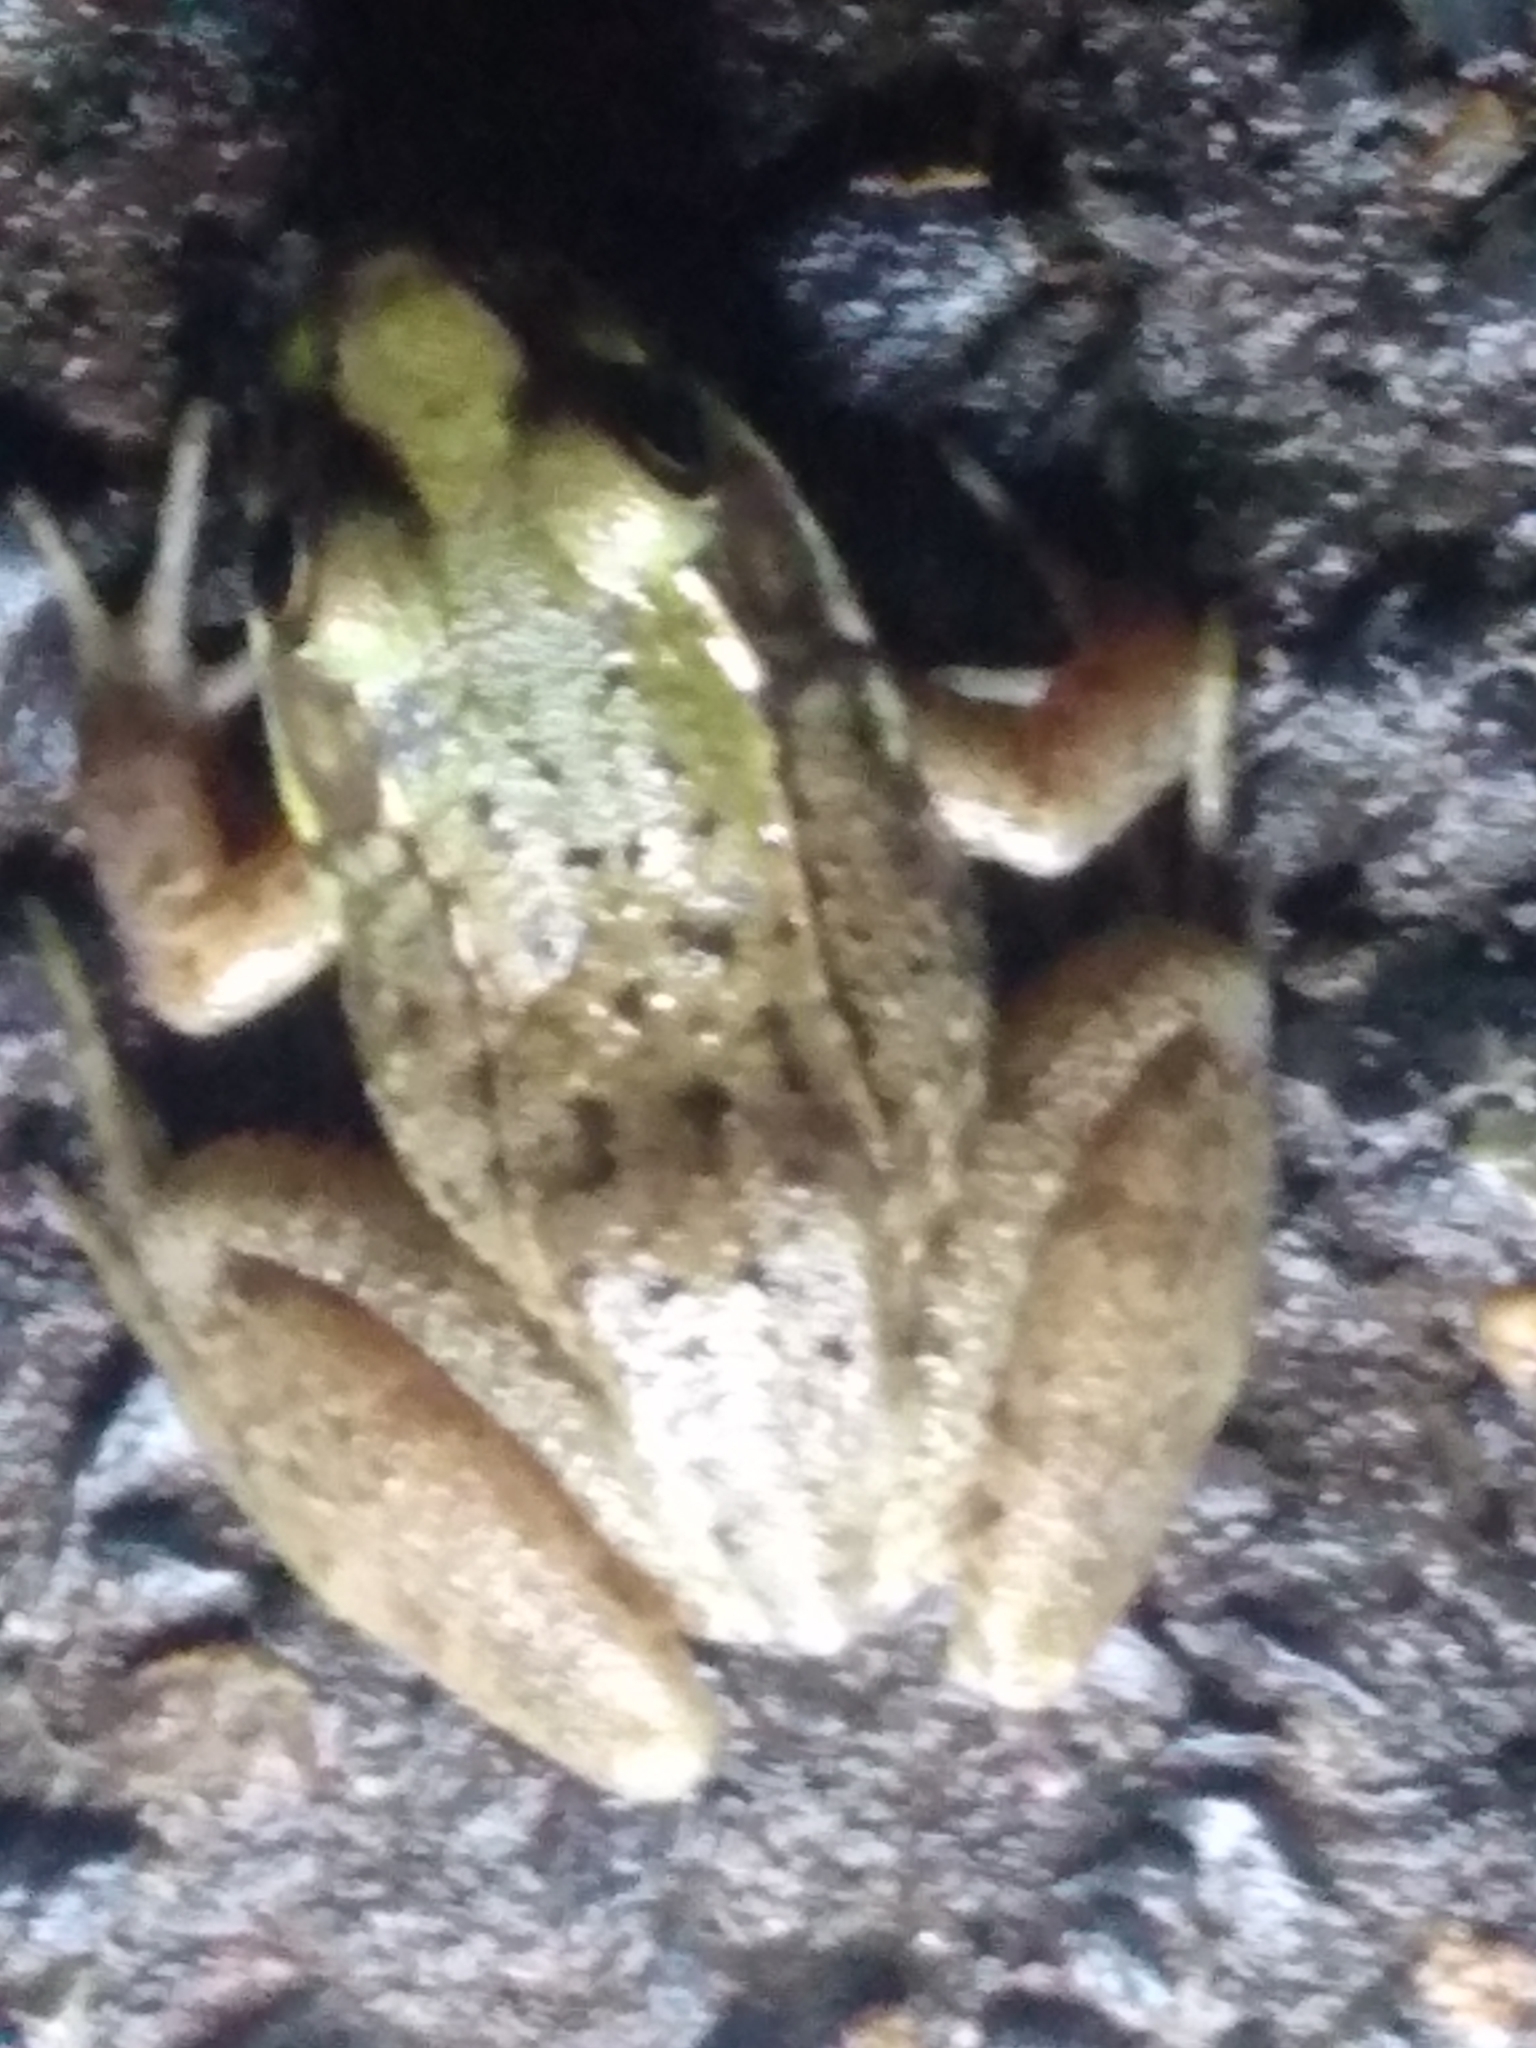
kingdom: Animalia
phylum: Chordata
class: Amphibia
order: Anura
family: Ranidae
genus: Lithobates
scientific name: Lithobates clamitans
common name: Green frog
